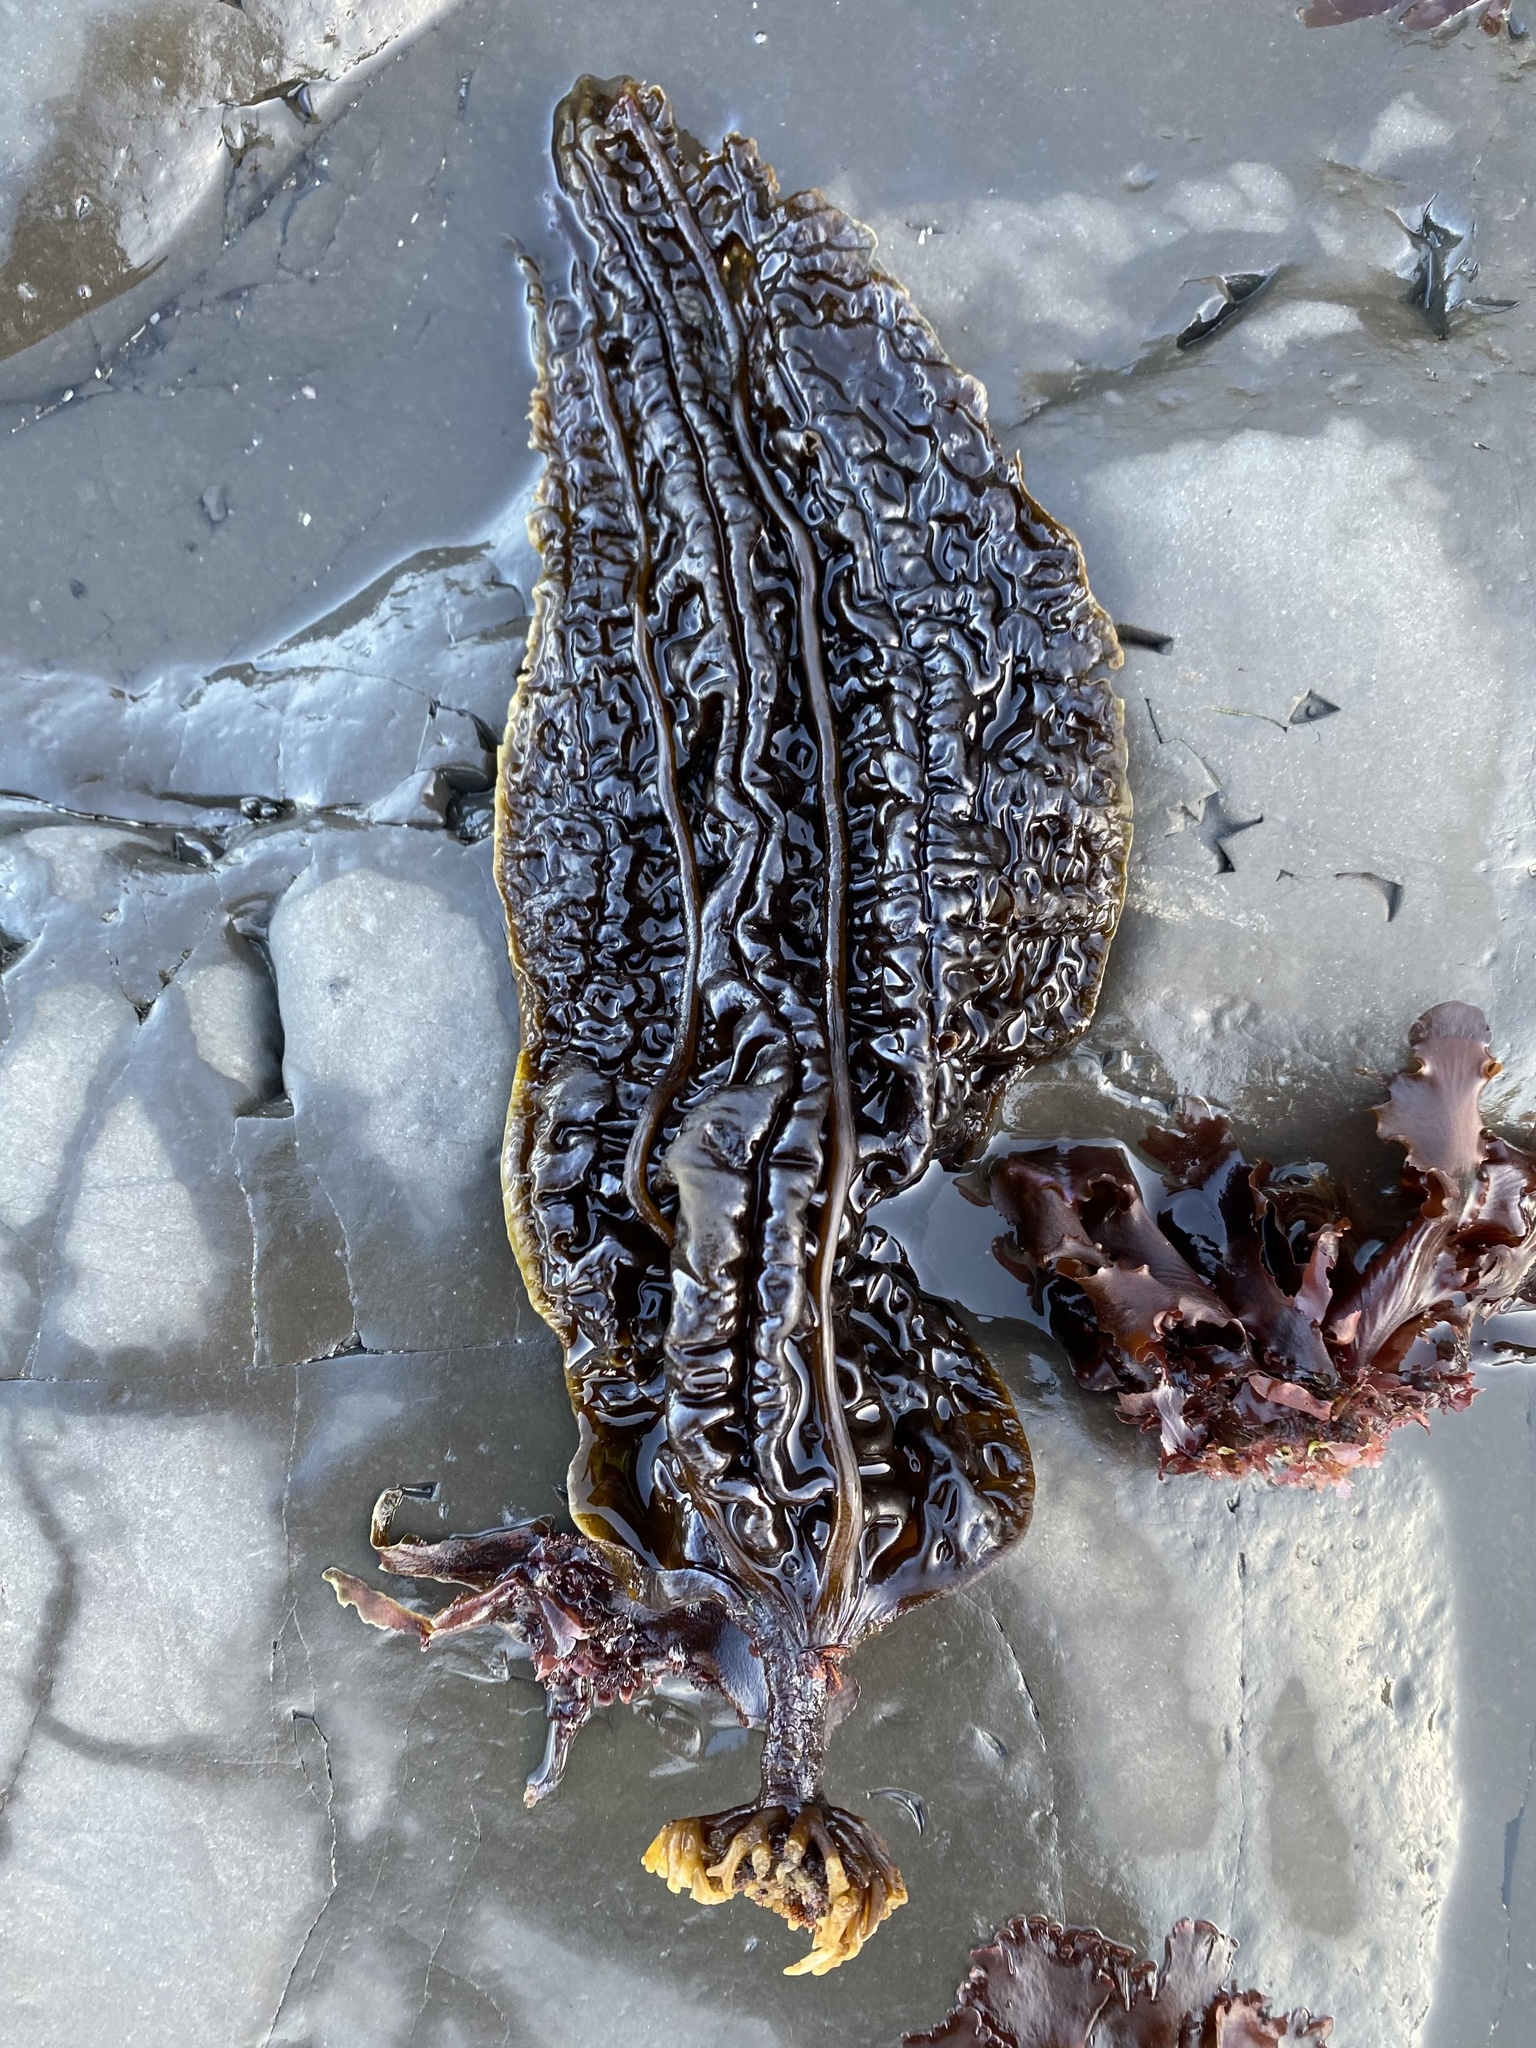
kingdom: Chromista
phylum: Ochrophyta
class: Phaeophyceae
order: Laminariales
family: Costariaceae
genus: Costaria
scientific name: Costaria costata
